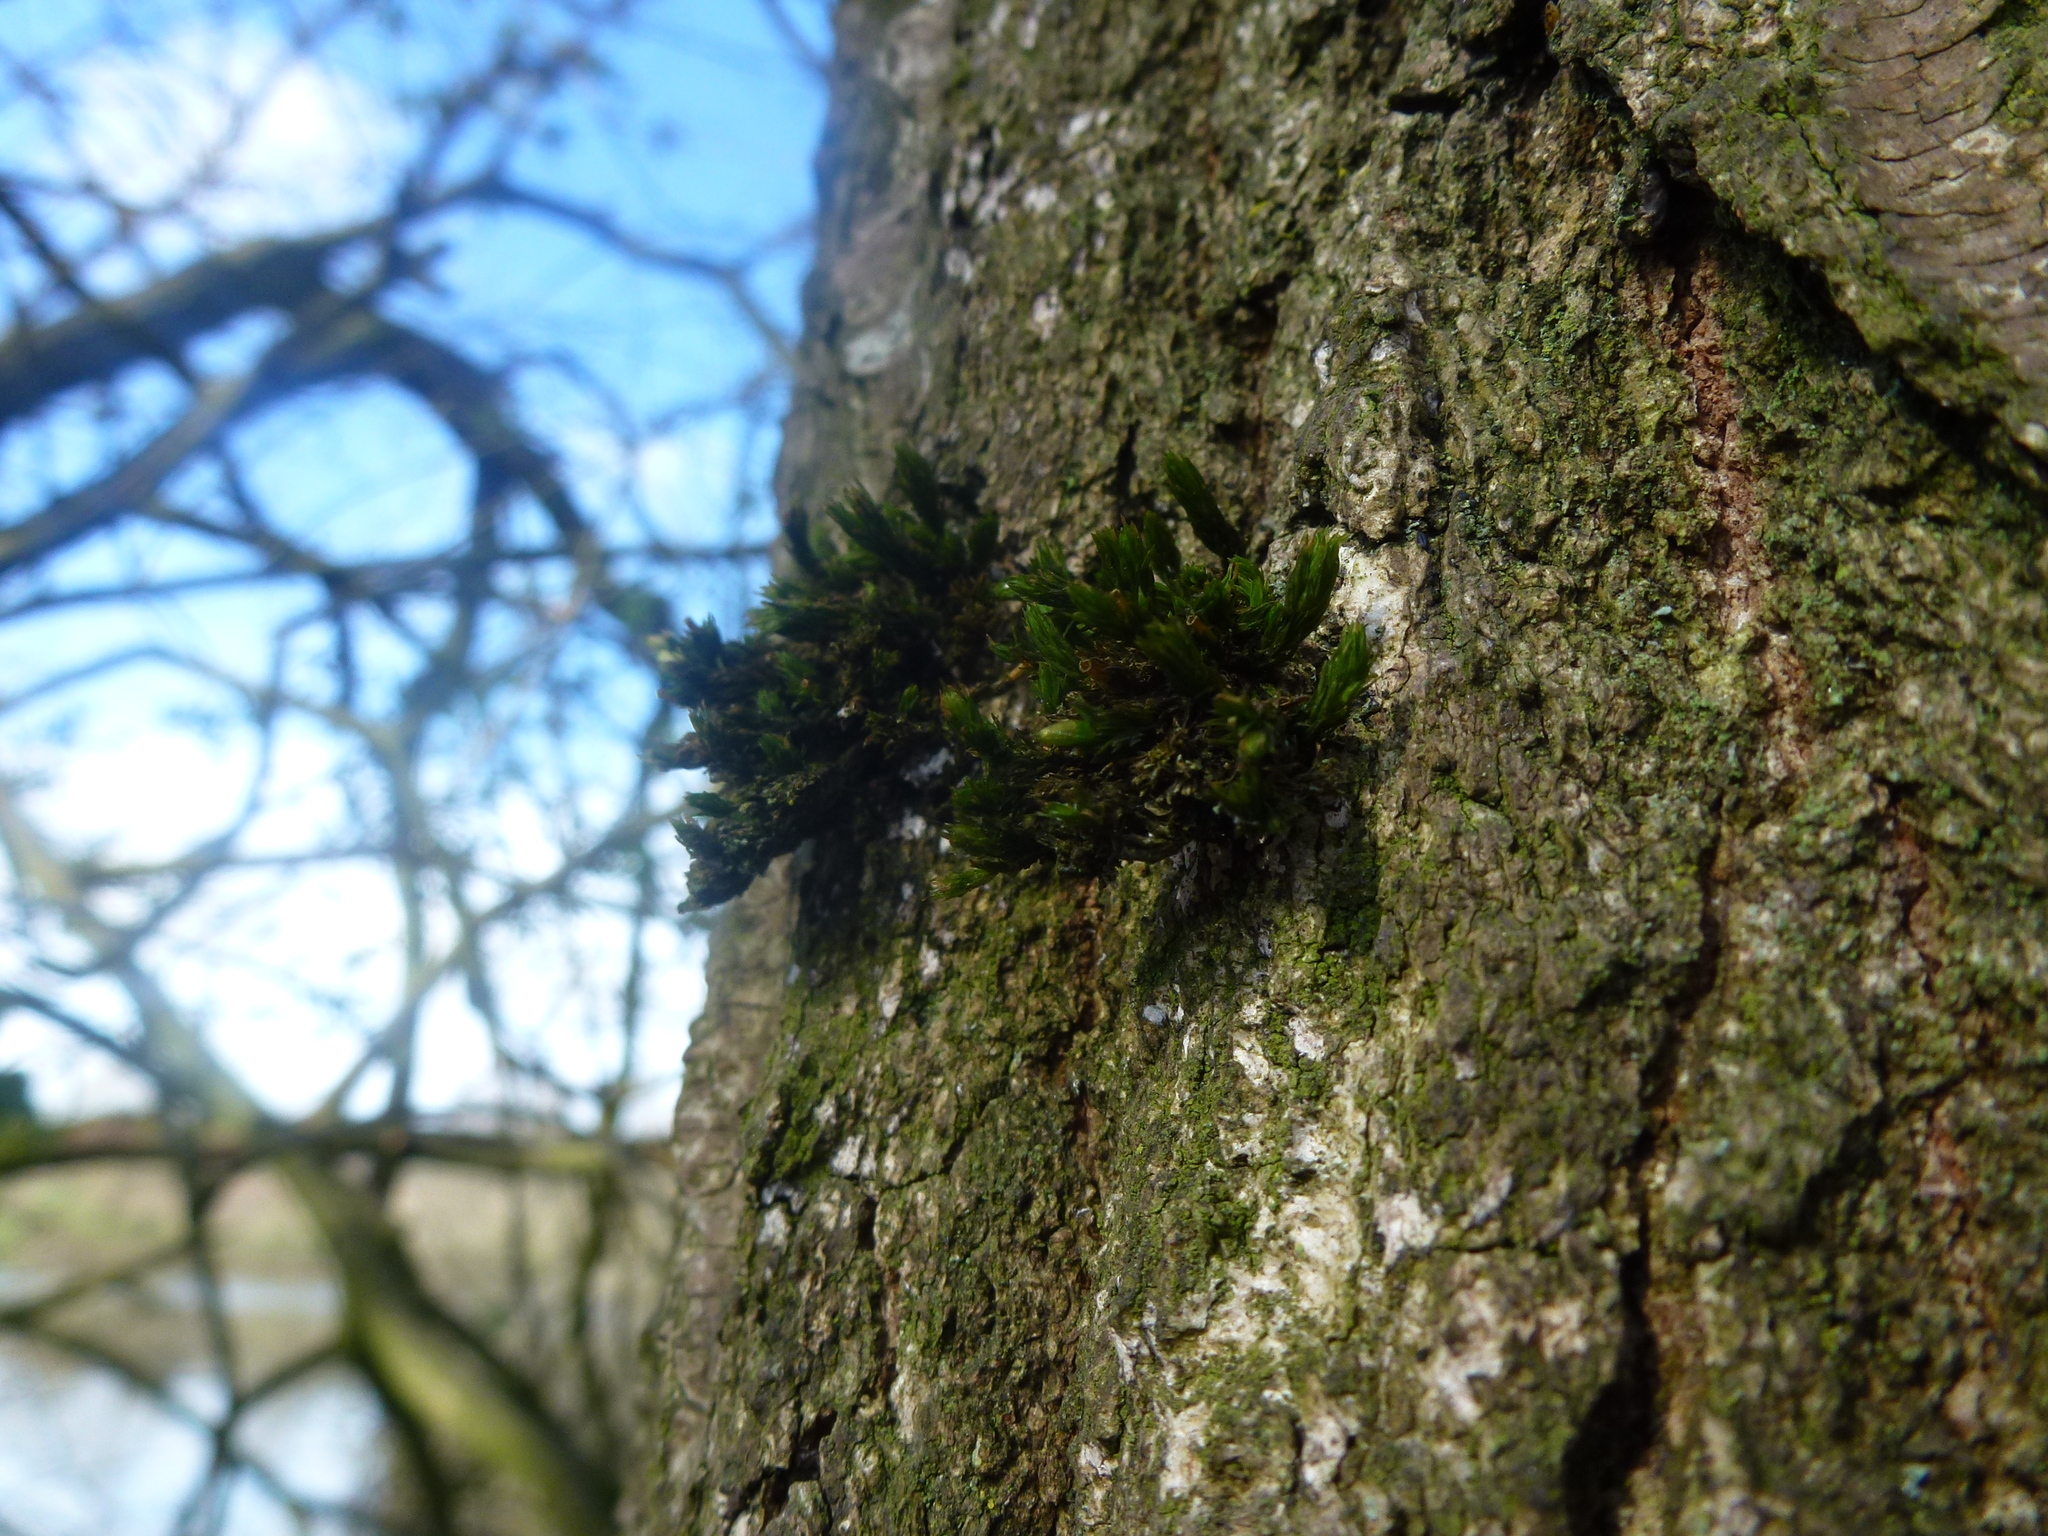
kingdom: Plantae
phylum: Bryophyta
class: Bryopsida
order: Orthotrichales
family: Orthotrichaceae
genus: Lewinskya
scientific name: Lewinskya affinis
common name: Wood bristle-moss
